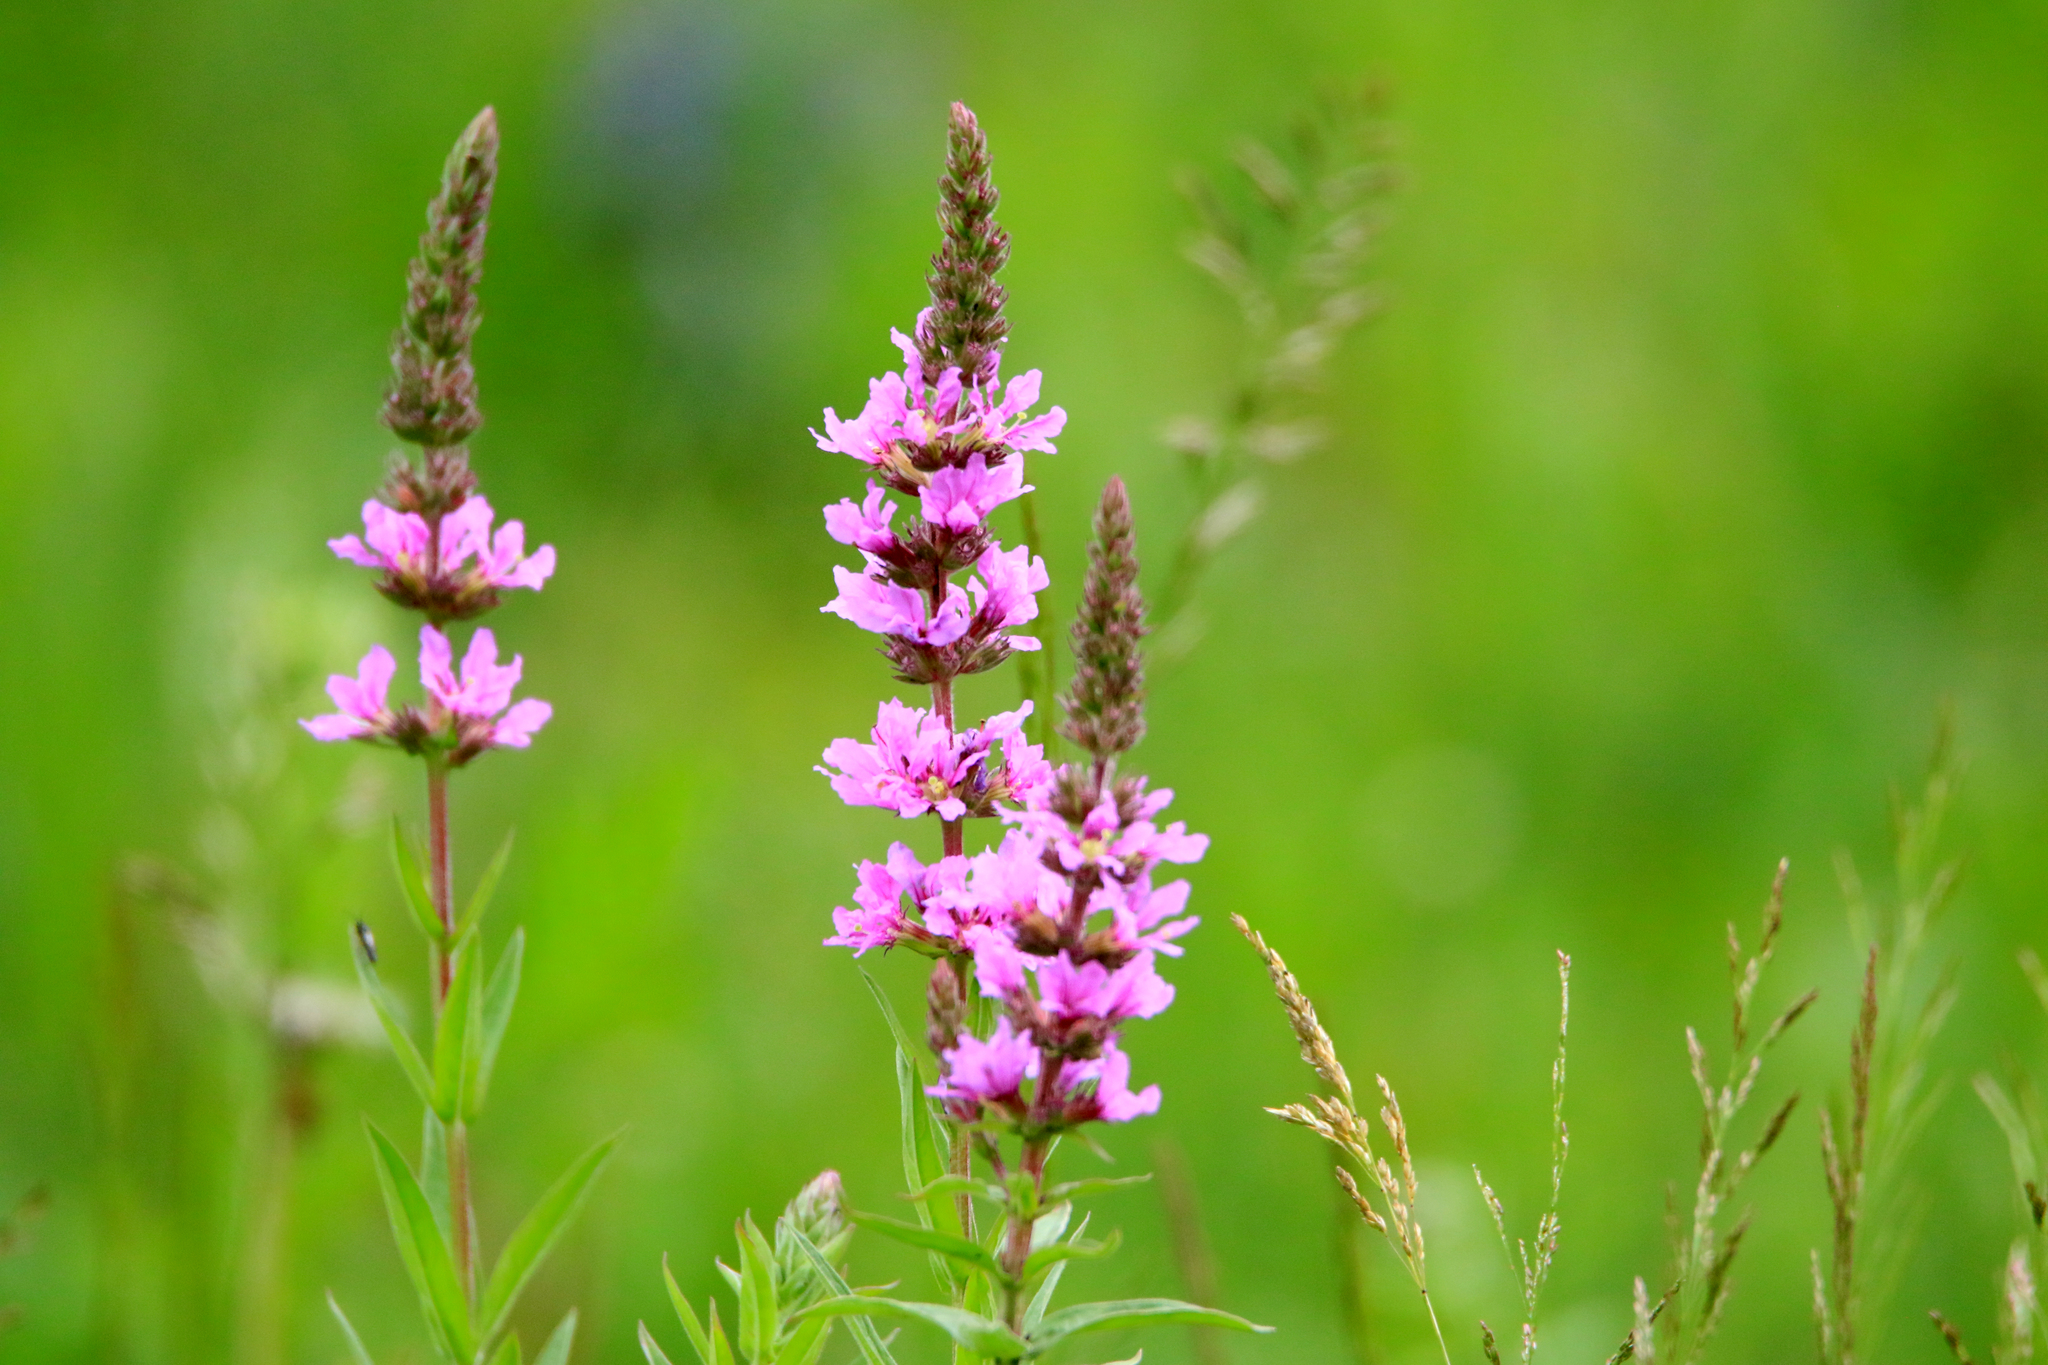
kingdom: Plantae
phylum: Tracheophyta
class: Magnoliopsida
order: Myrtales
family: Lythraceae
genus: Lythrum
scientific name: Lythrum salicaria
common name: Purple loosestrife
